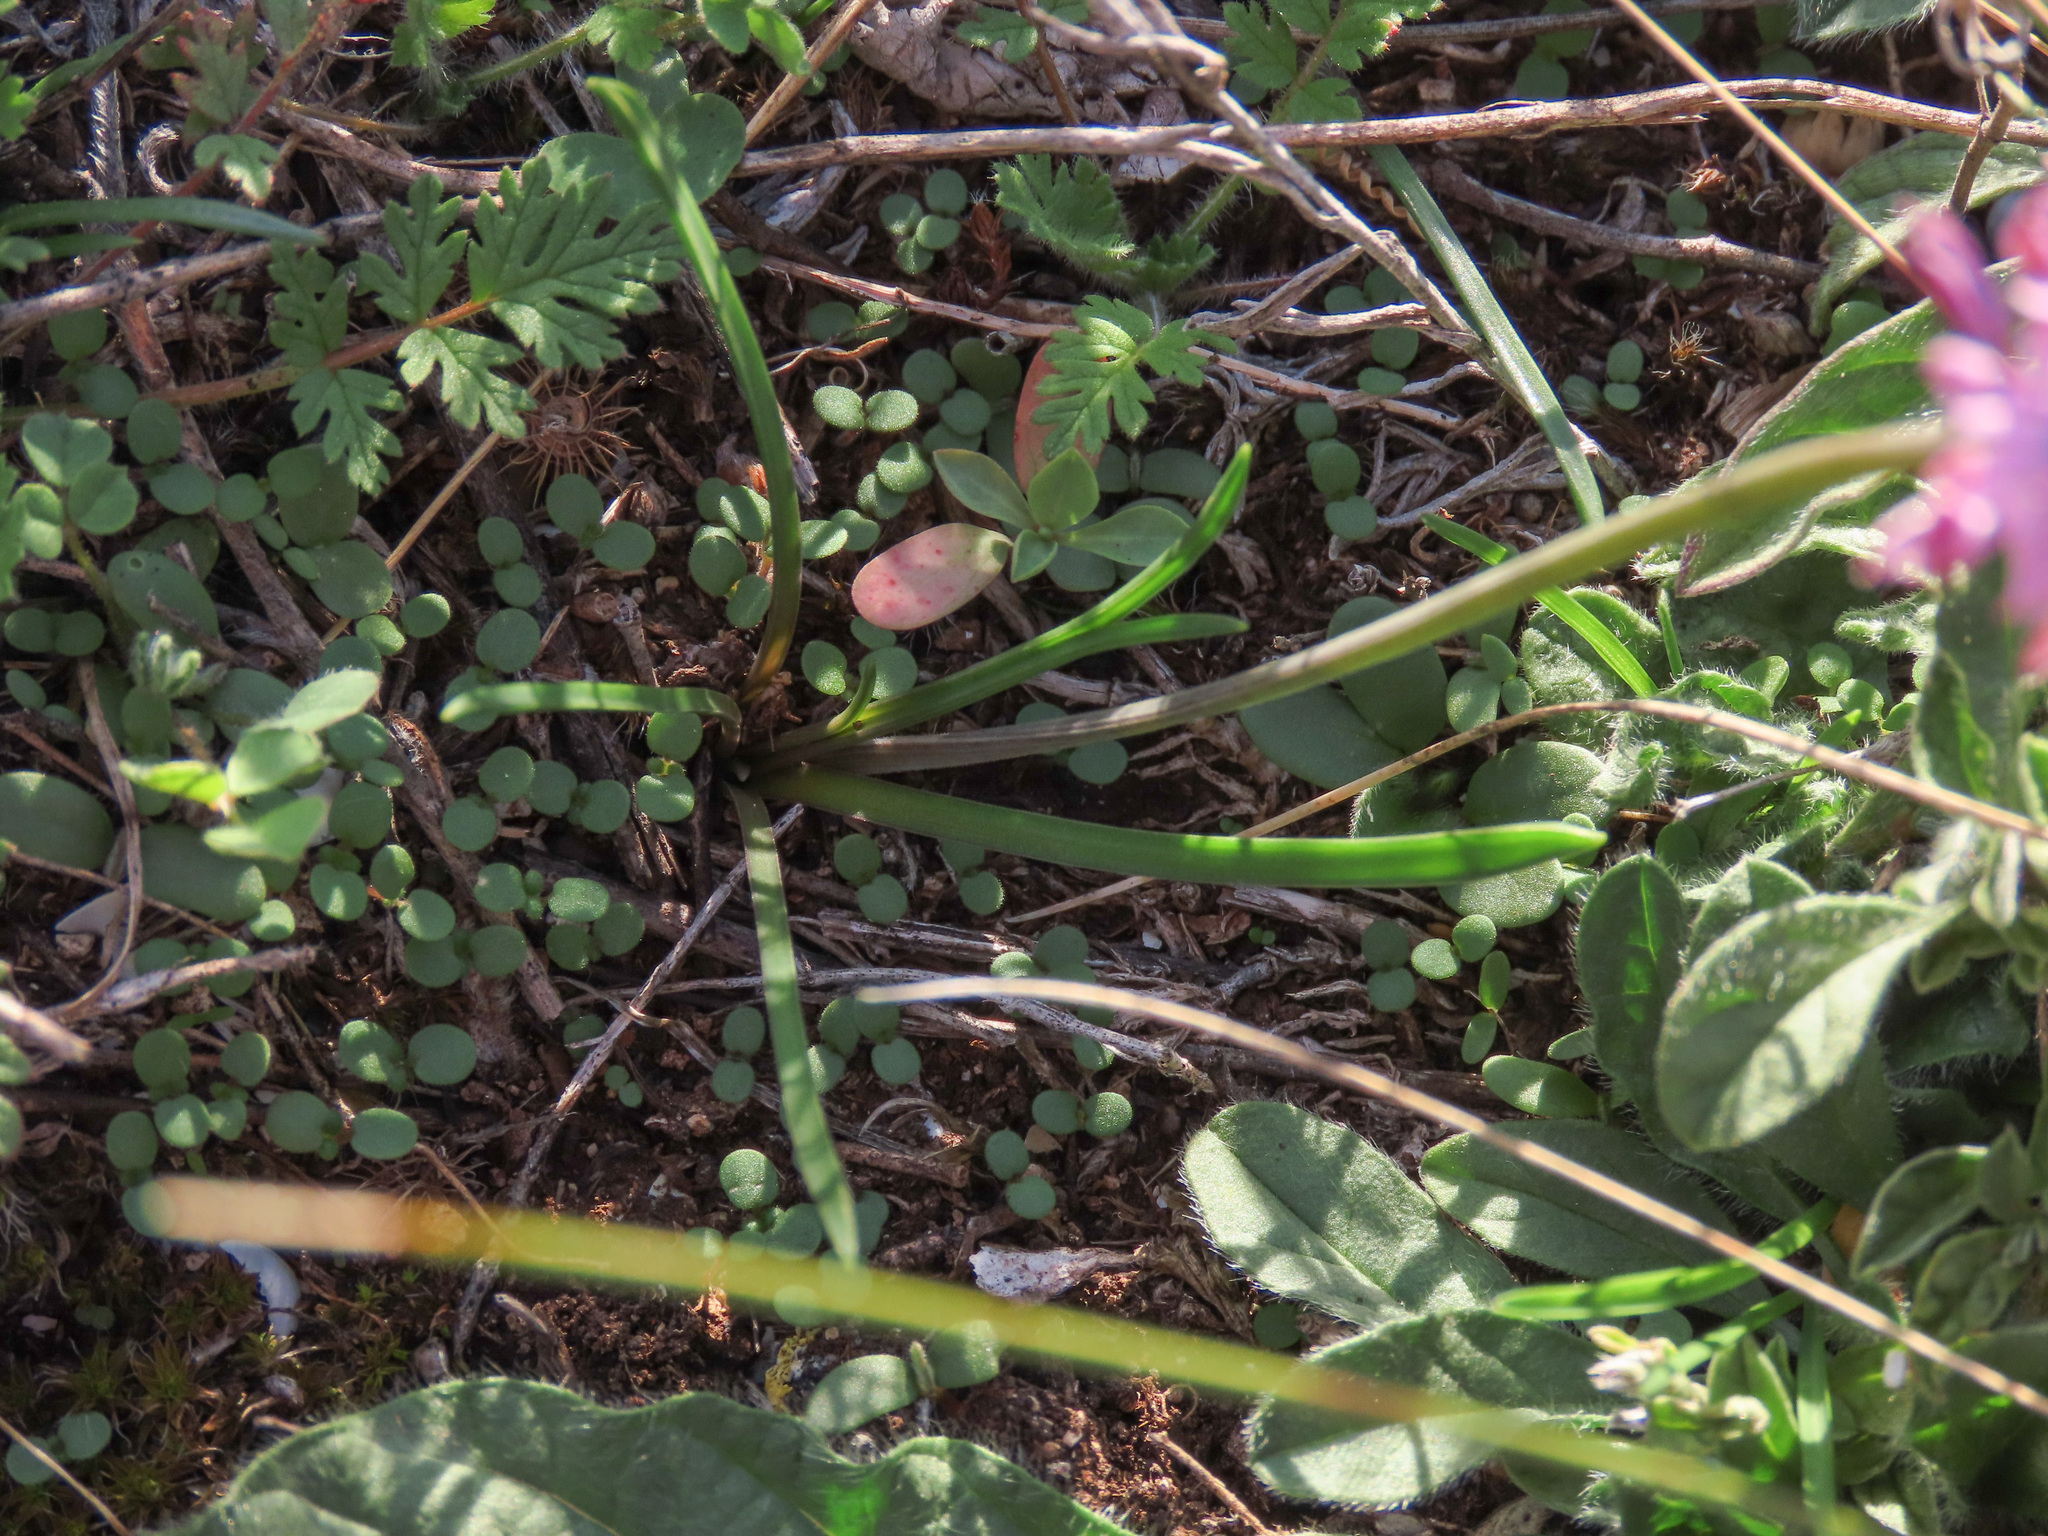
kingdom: Plantae
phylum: Tracheophyta
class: Liliopsida
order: Asparagales
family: Asparagaceae
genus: Prospero
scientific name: Prospero autumnale
